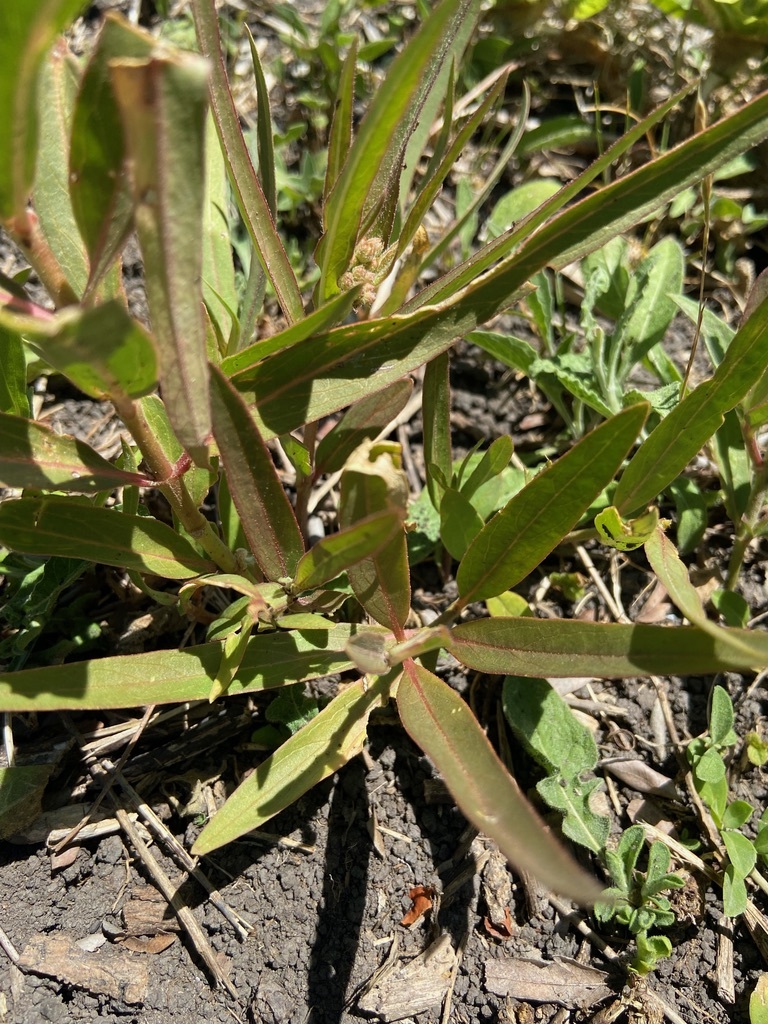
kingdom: Plantae
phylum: Tracheophyta
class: Magnoliopsida
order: Gentianales
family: Apocynaceae
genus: Asclepias
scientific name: Asclepias mellodora
